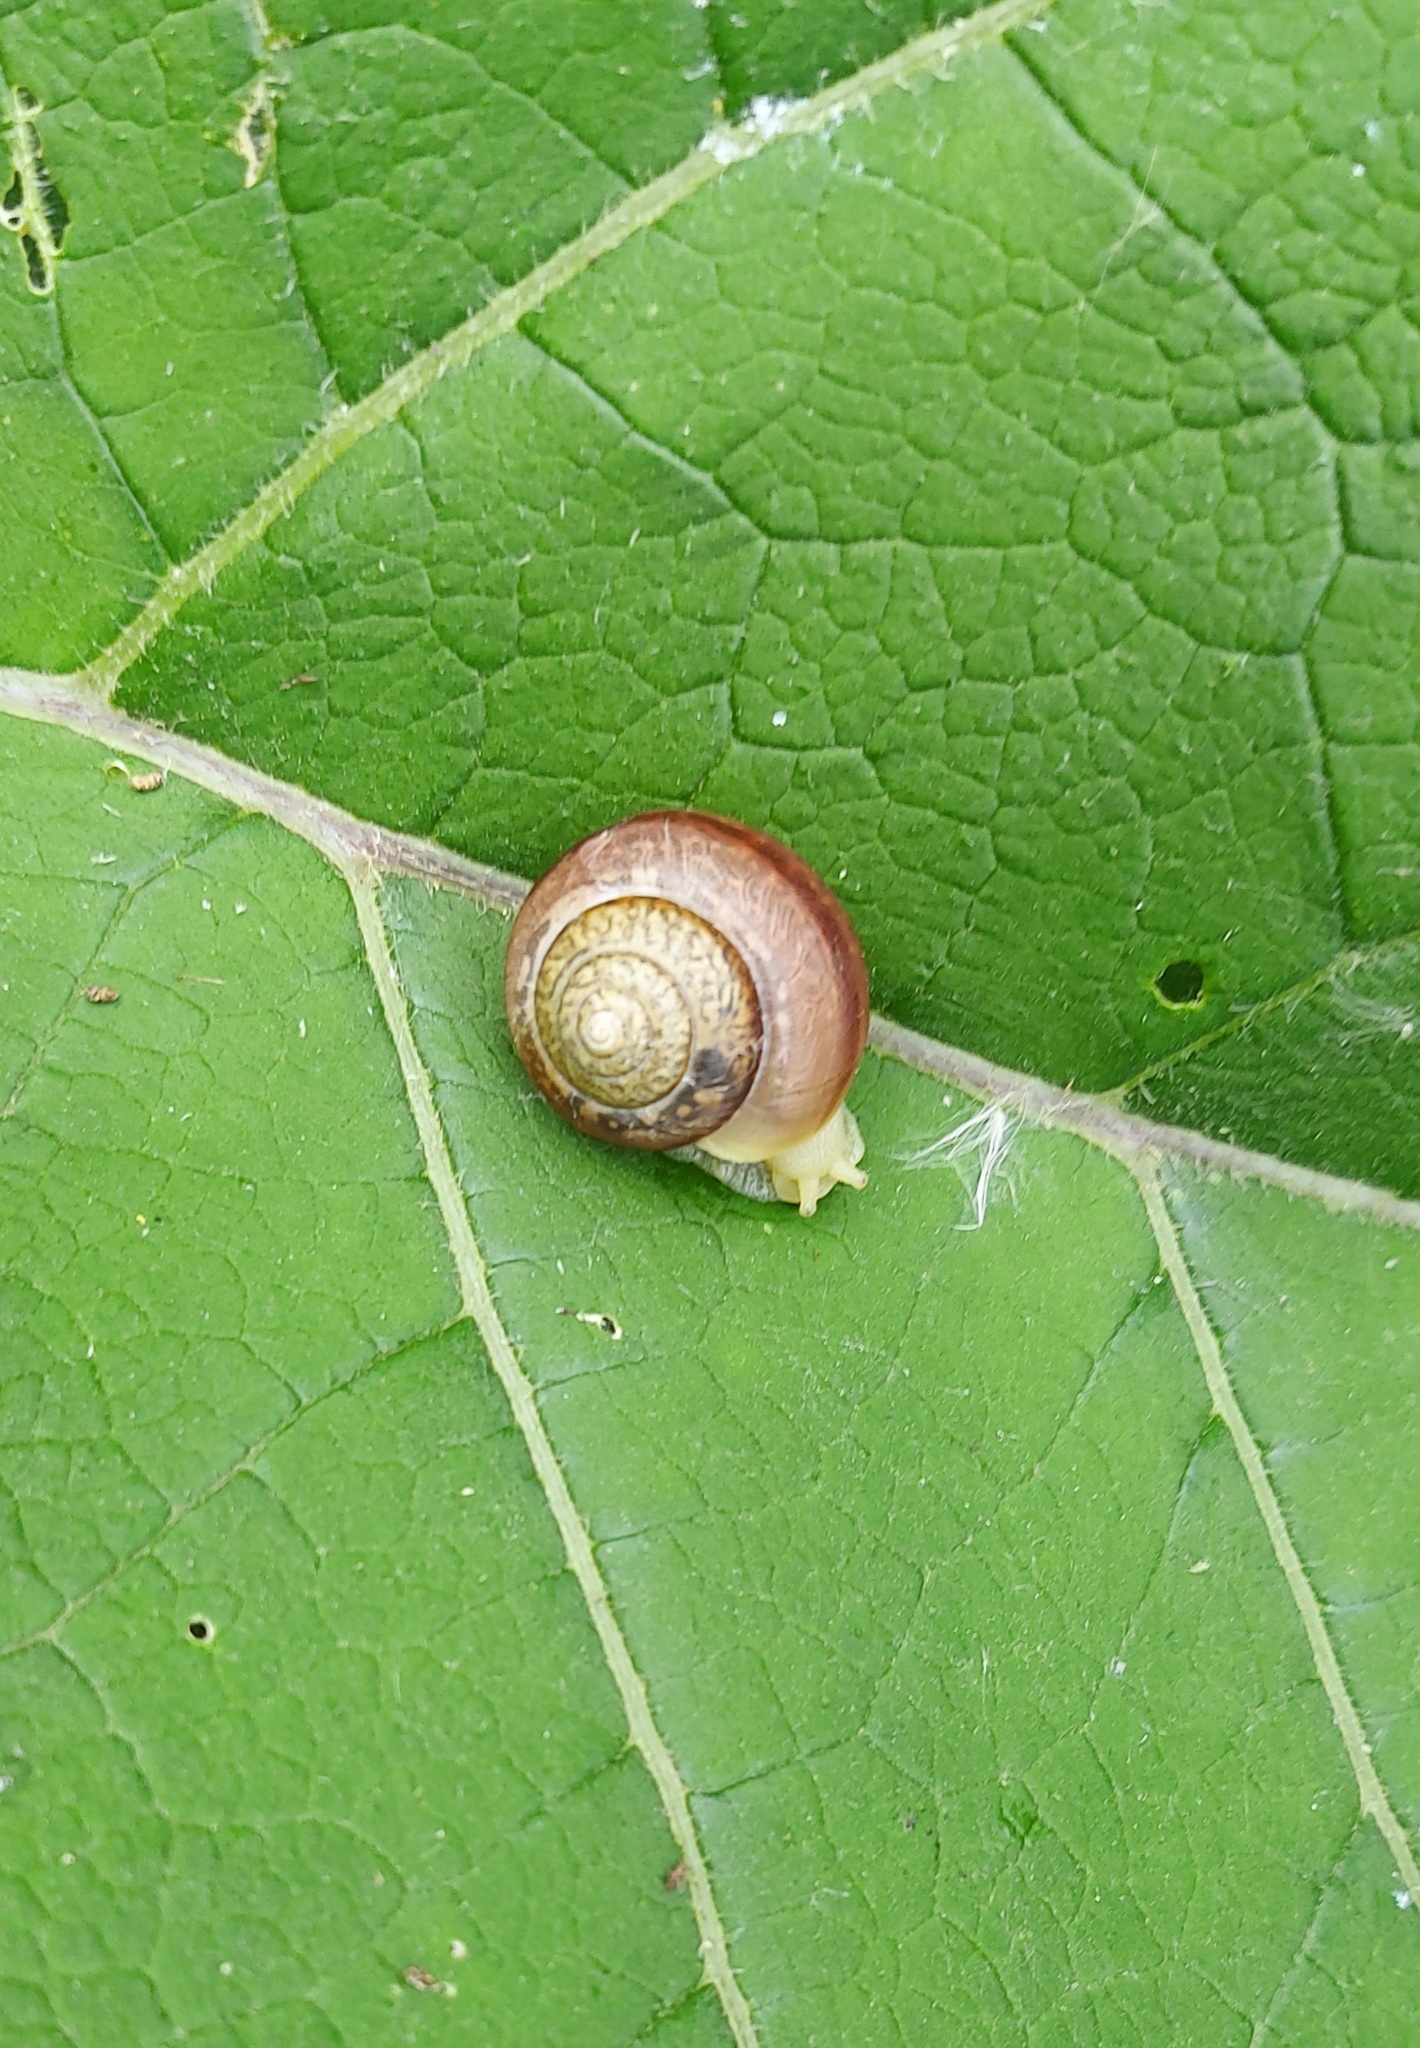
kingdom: Animalia
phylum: Mollusca
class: Gastropoda
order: Stylommatophora
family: Camaenidae
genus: Fruticicola
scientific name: Fruticicola fruticum
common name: Bush snail
